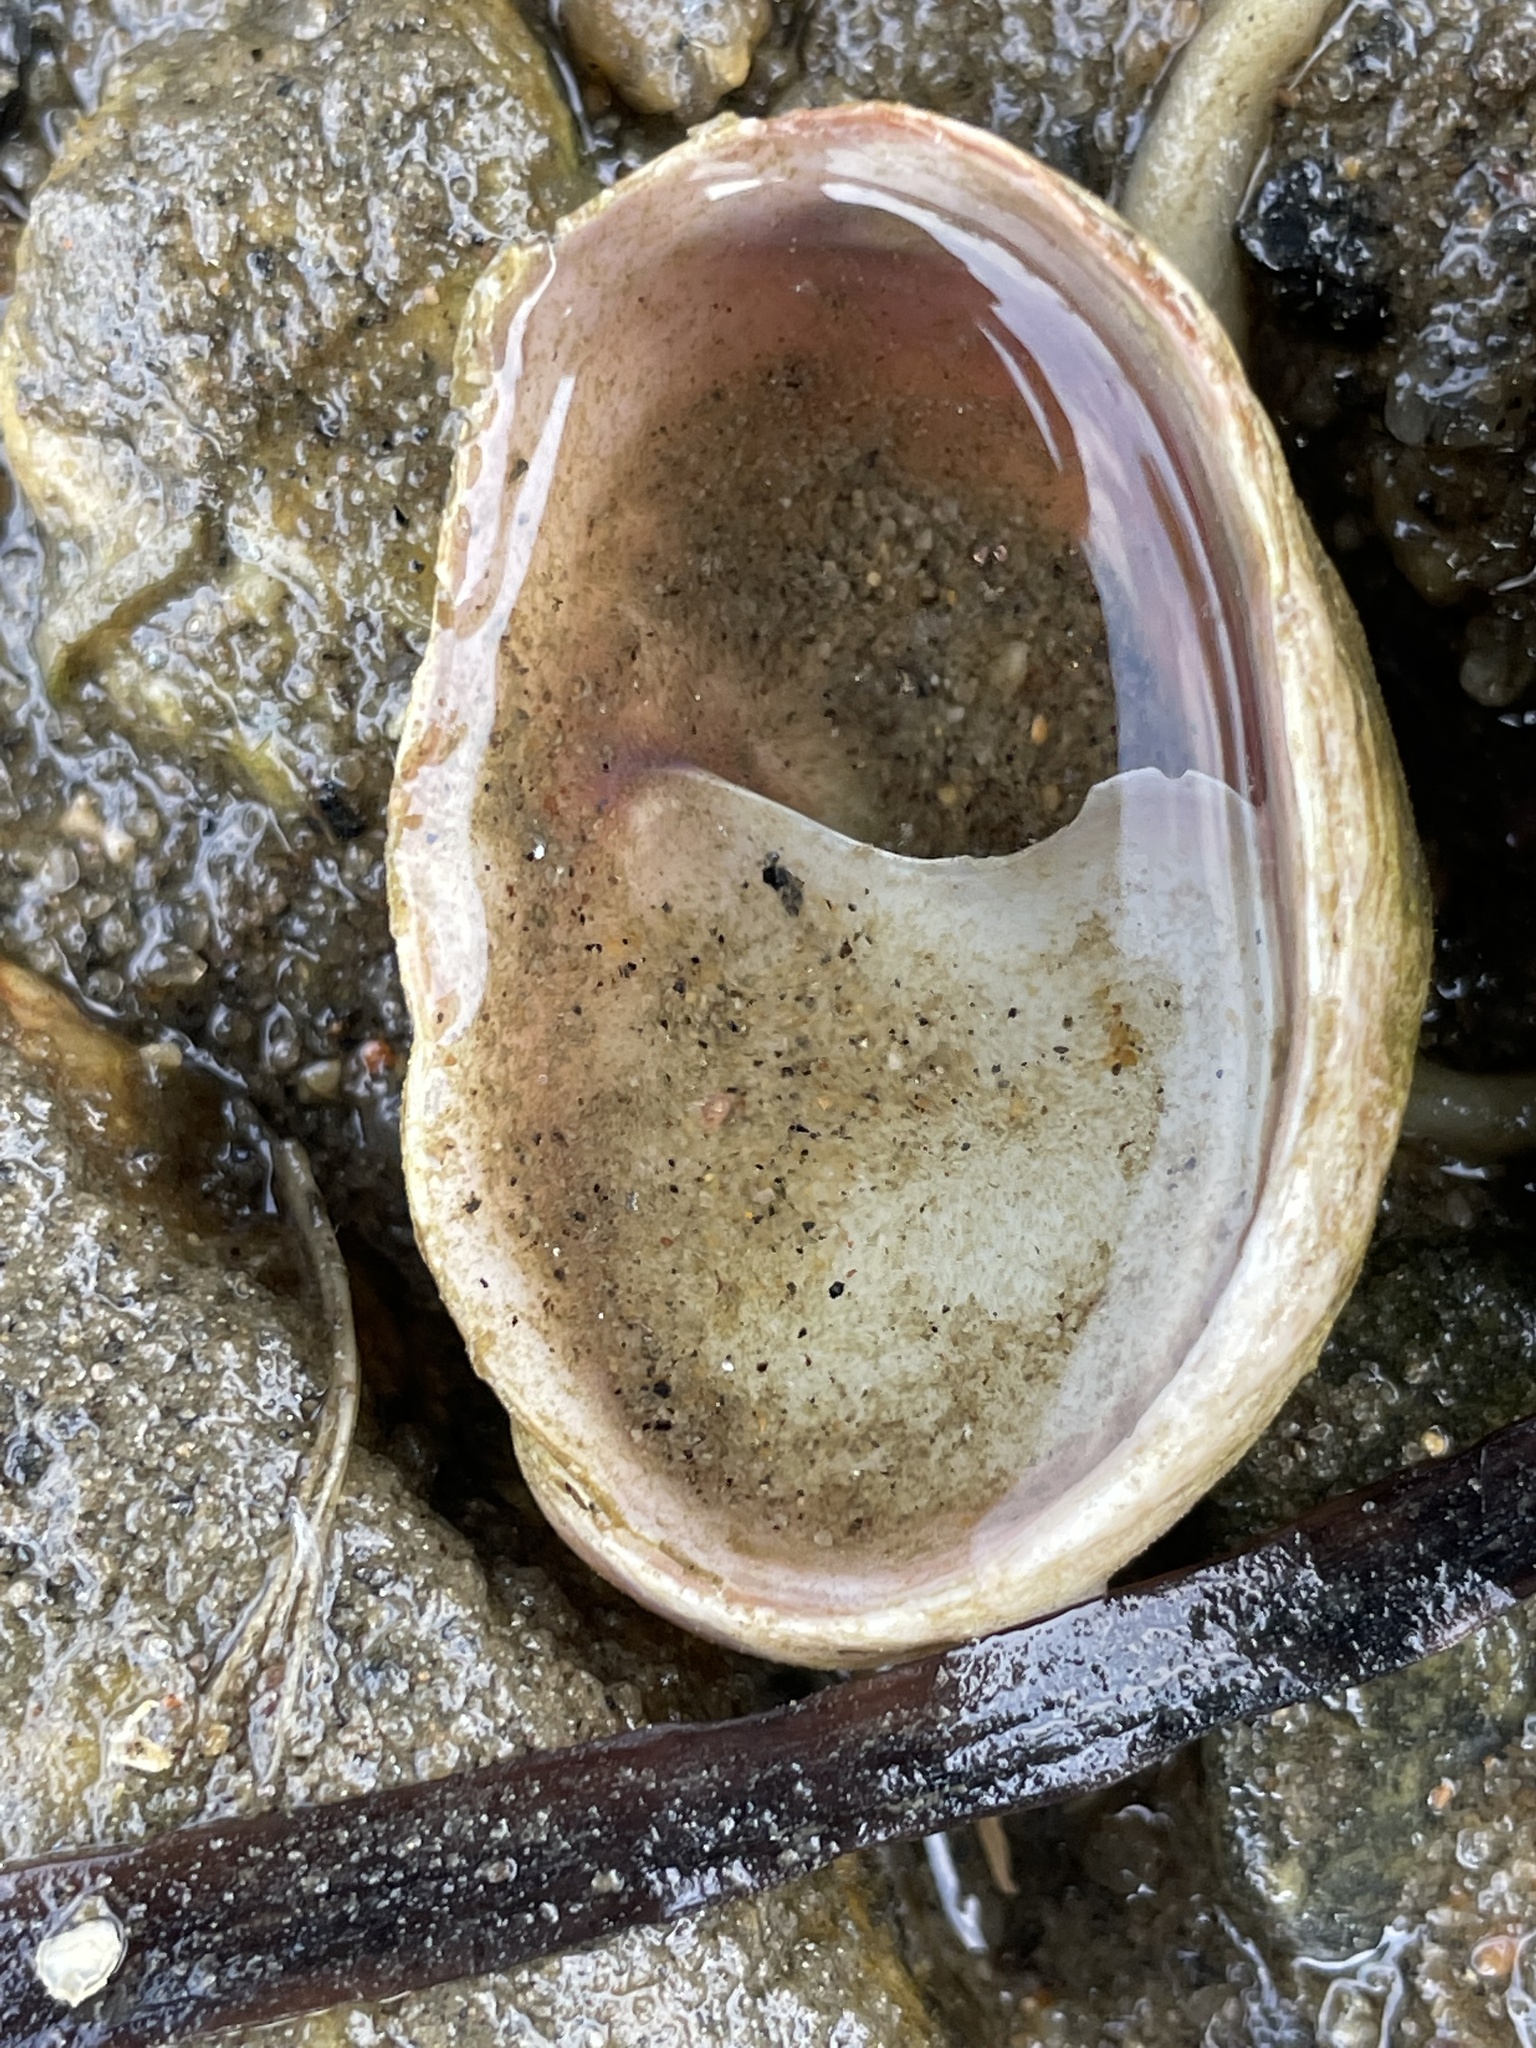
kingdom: Animalia
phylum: Mollusca
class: Gastropoda
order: Littorinimorpha
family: Calyptraeidae
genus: Crepidula
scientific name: Crepidula fornicata
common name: Slipper limpet
